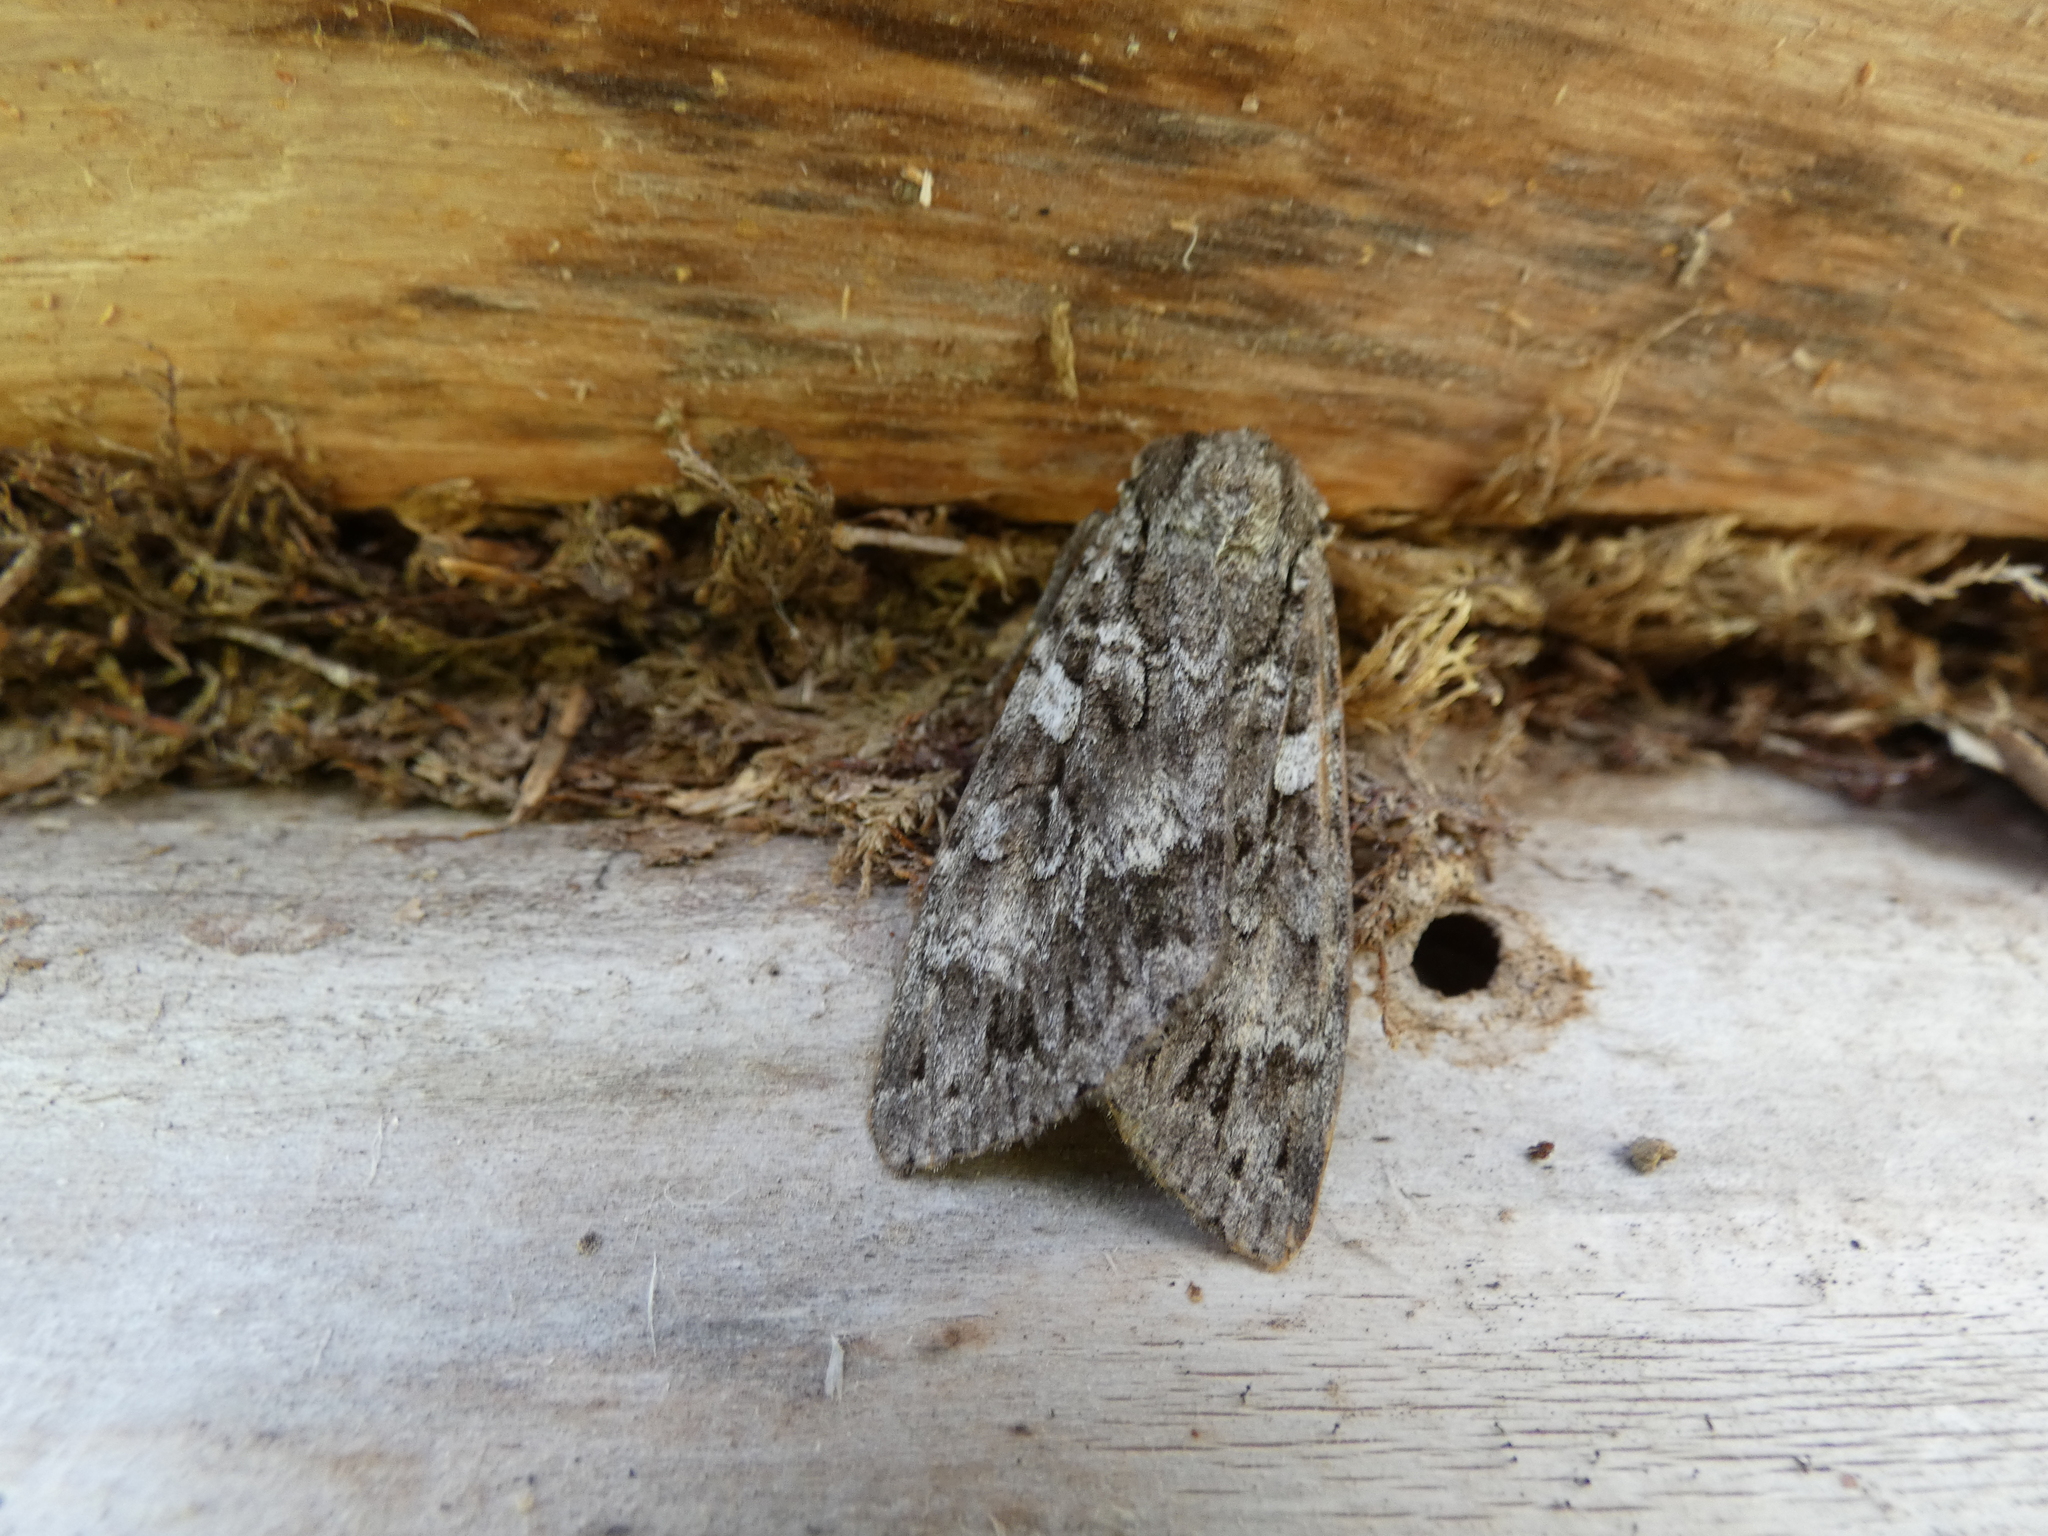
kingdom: Animalia
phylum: Arthropoda
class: Insecta
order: Lepidoptera
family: Noctuidae
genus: Eurois
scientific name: Eurois occulta
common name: Great brocade
